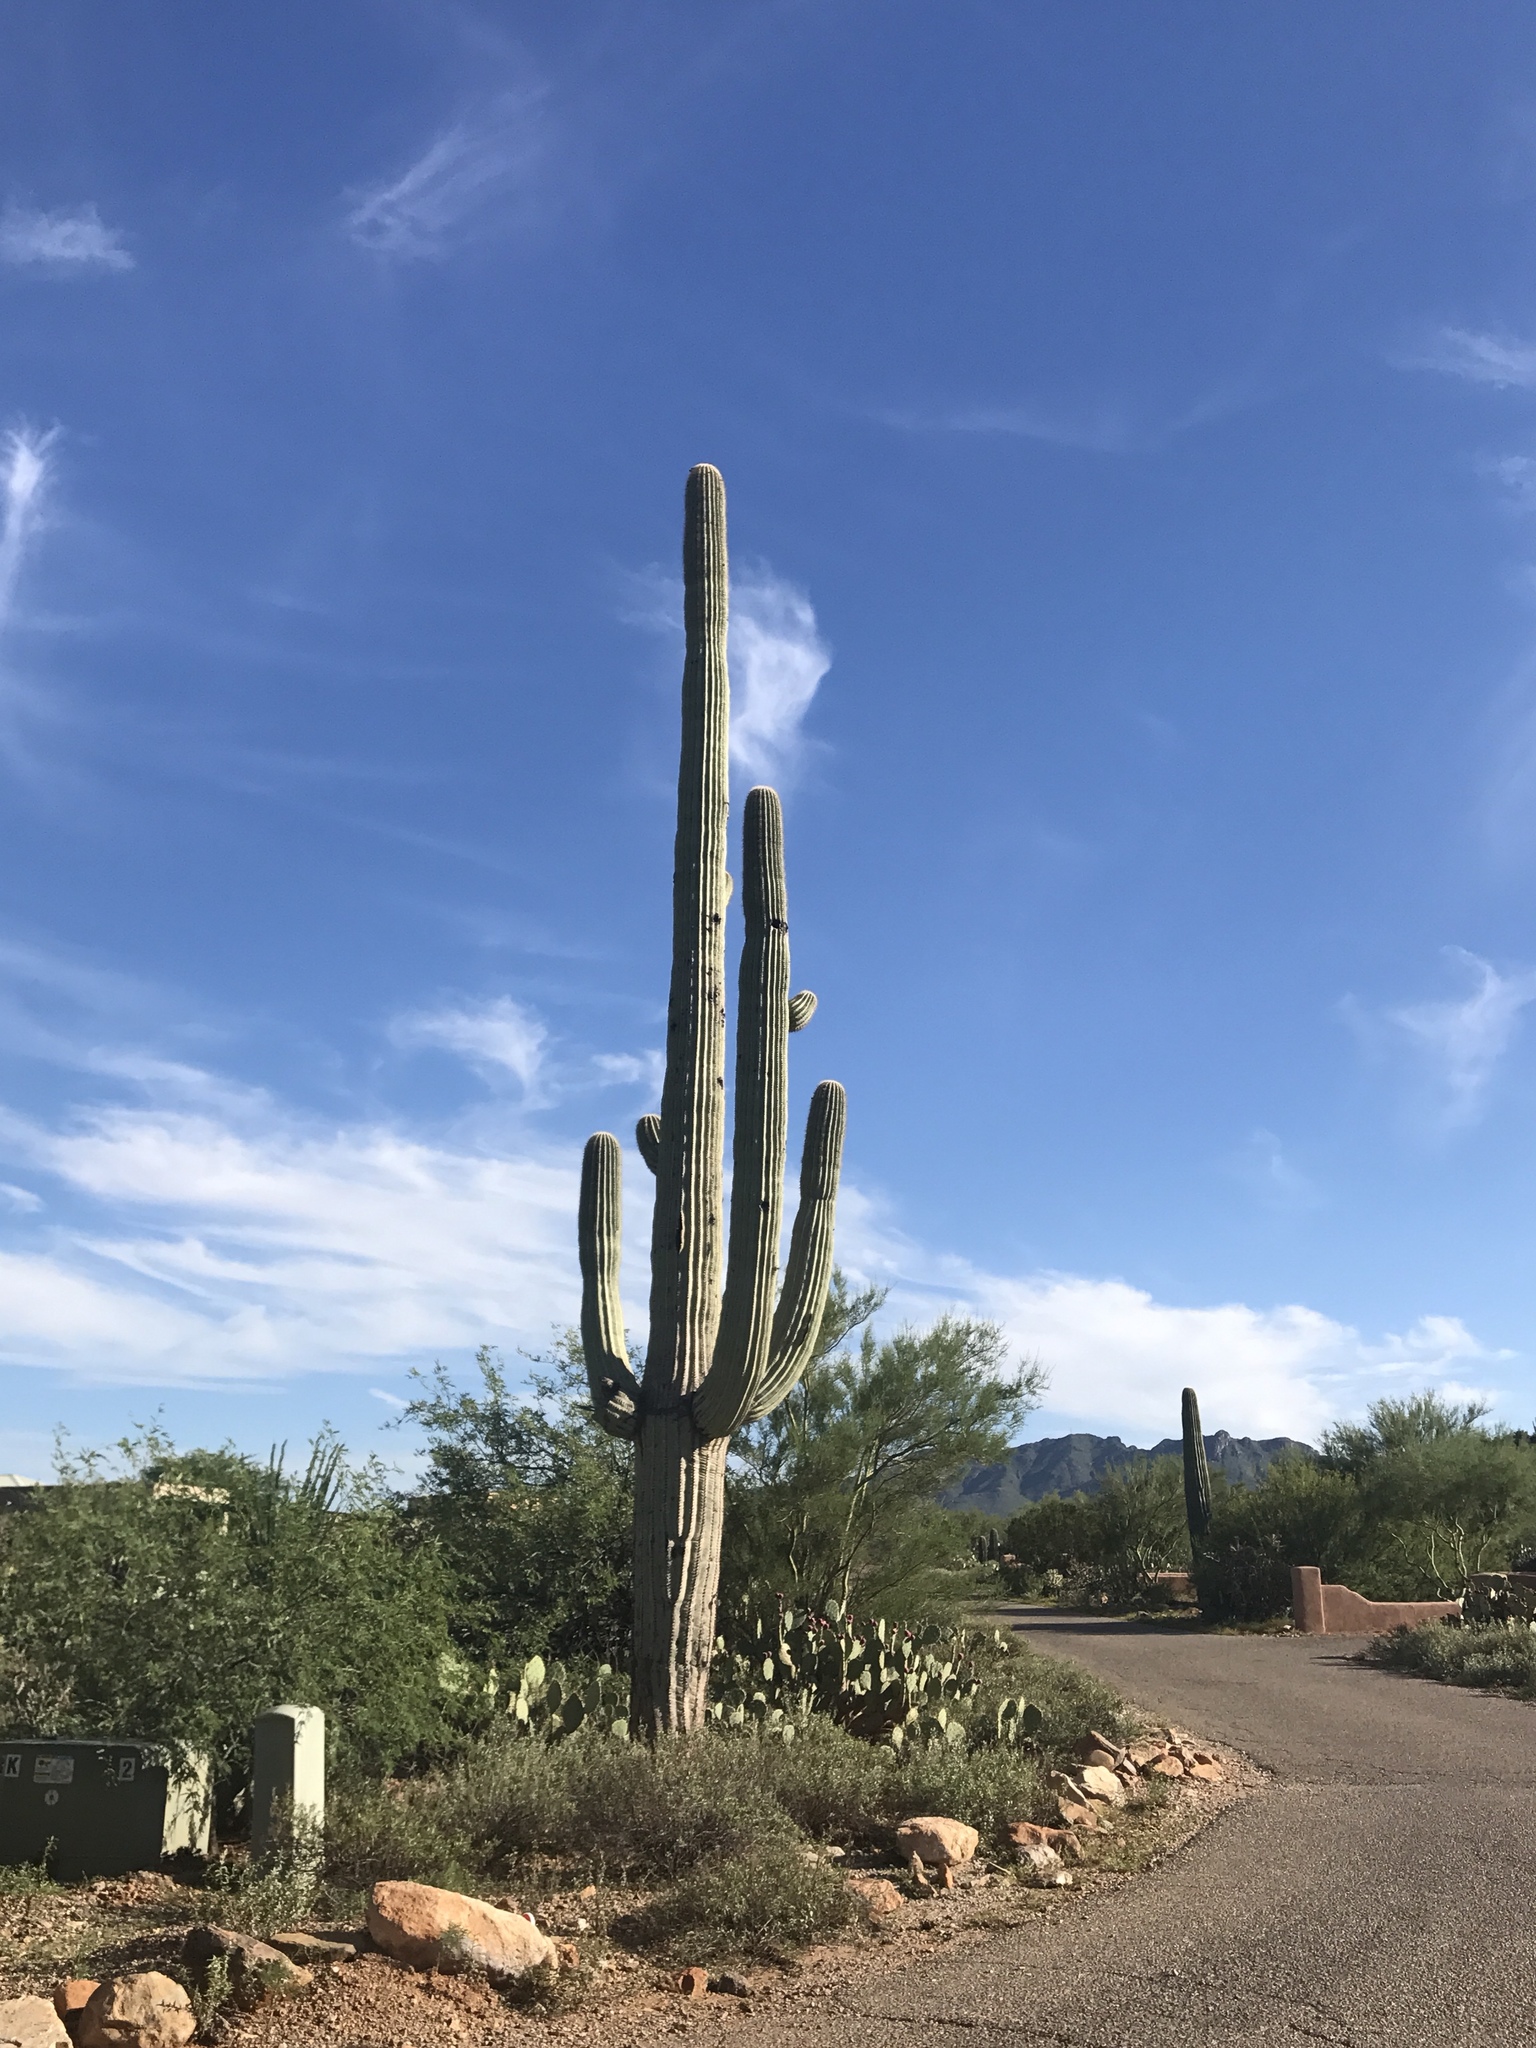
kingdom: Plantae
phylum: Tracheophyta
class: Magnoliopsida
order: Caryophyllales
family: Cactaceae
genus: Carnegiea
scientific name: Carnegiea gigantea
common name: Saguaro
